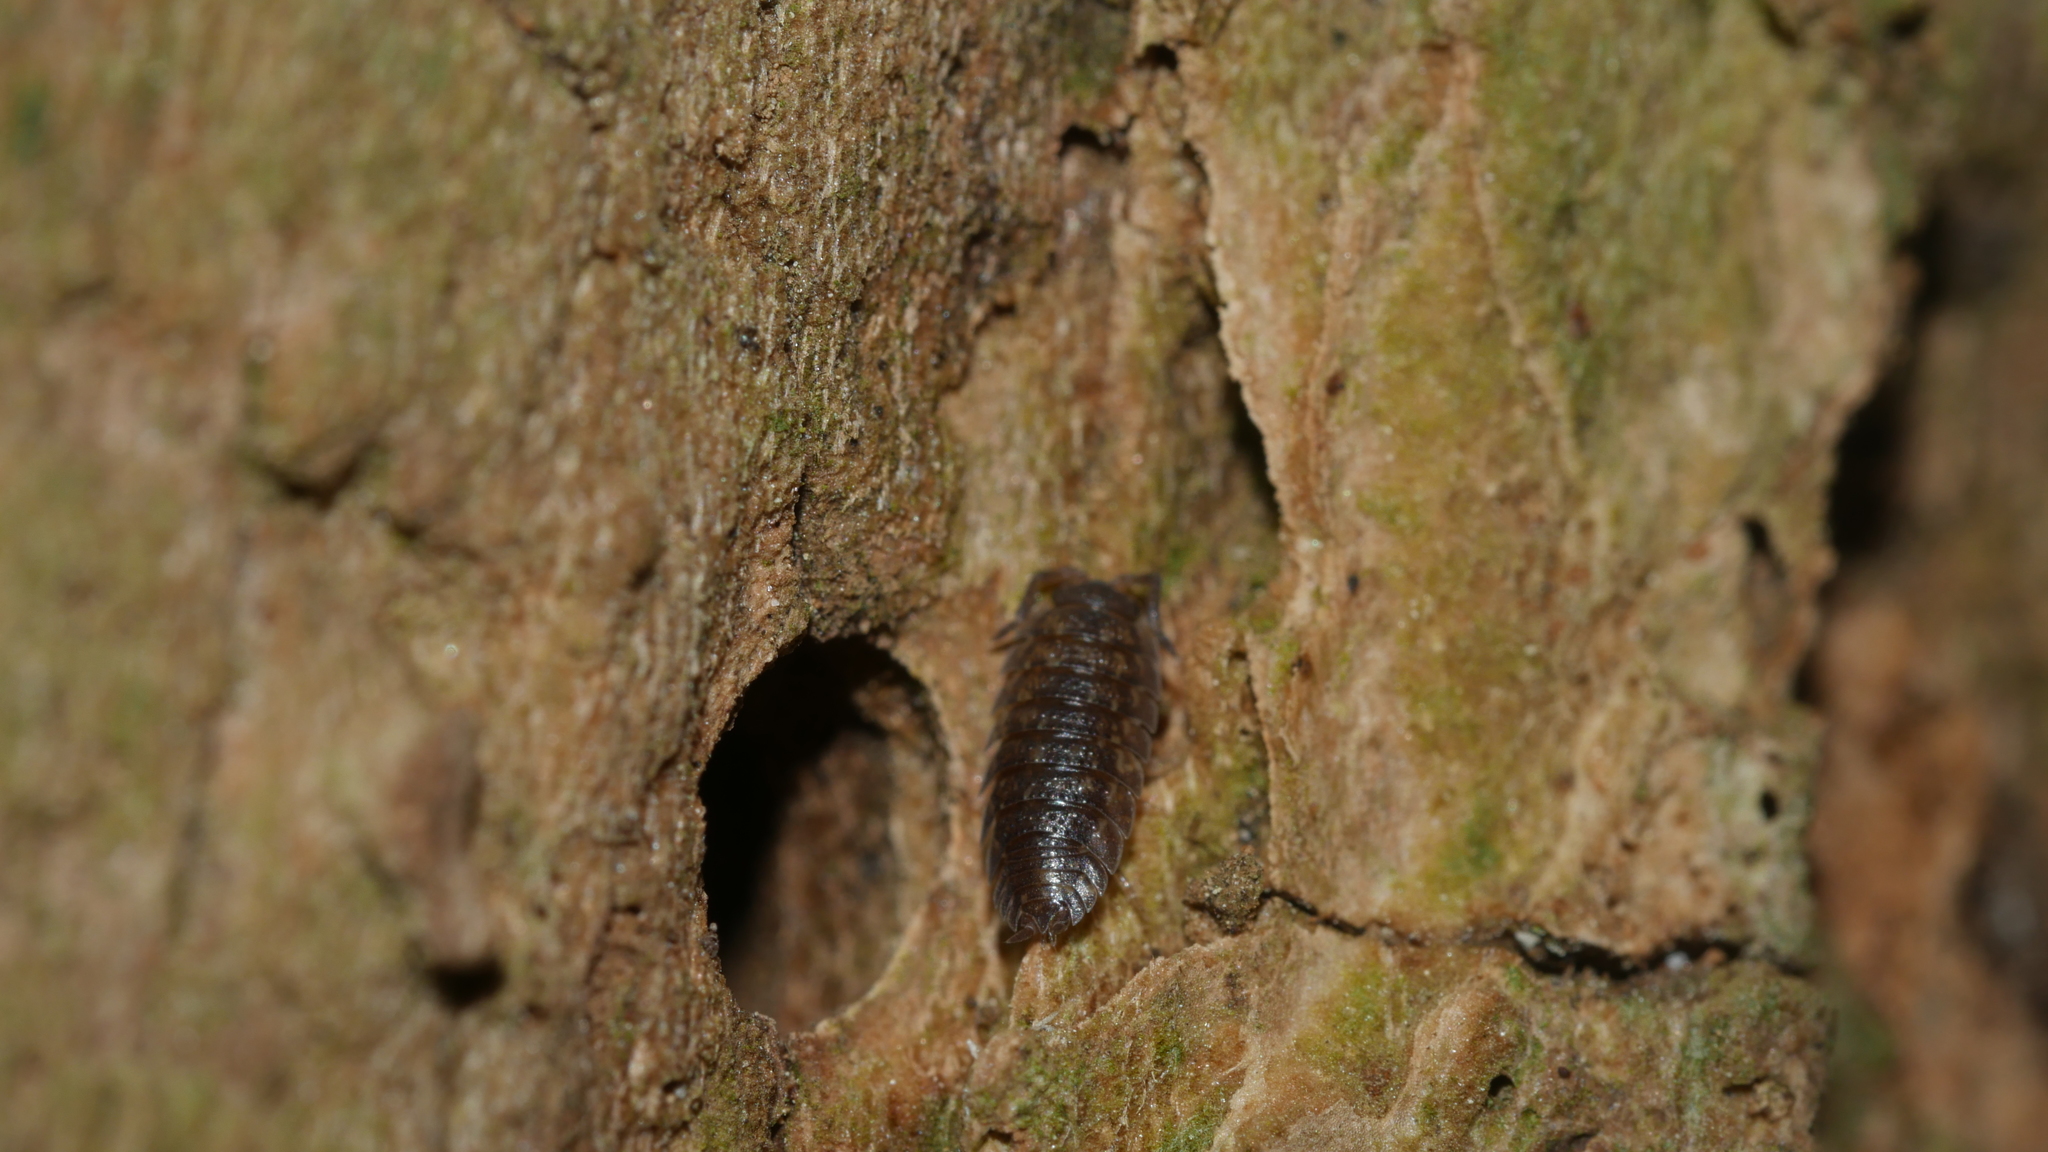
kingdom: Animalia
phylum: Arthropoda
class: Malacostraca
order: Isopoda
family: Porcellionidae
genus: Porcellio
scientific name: Porcellio scaber
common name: Common rough woodlouse
